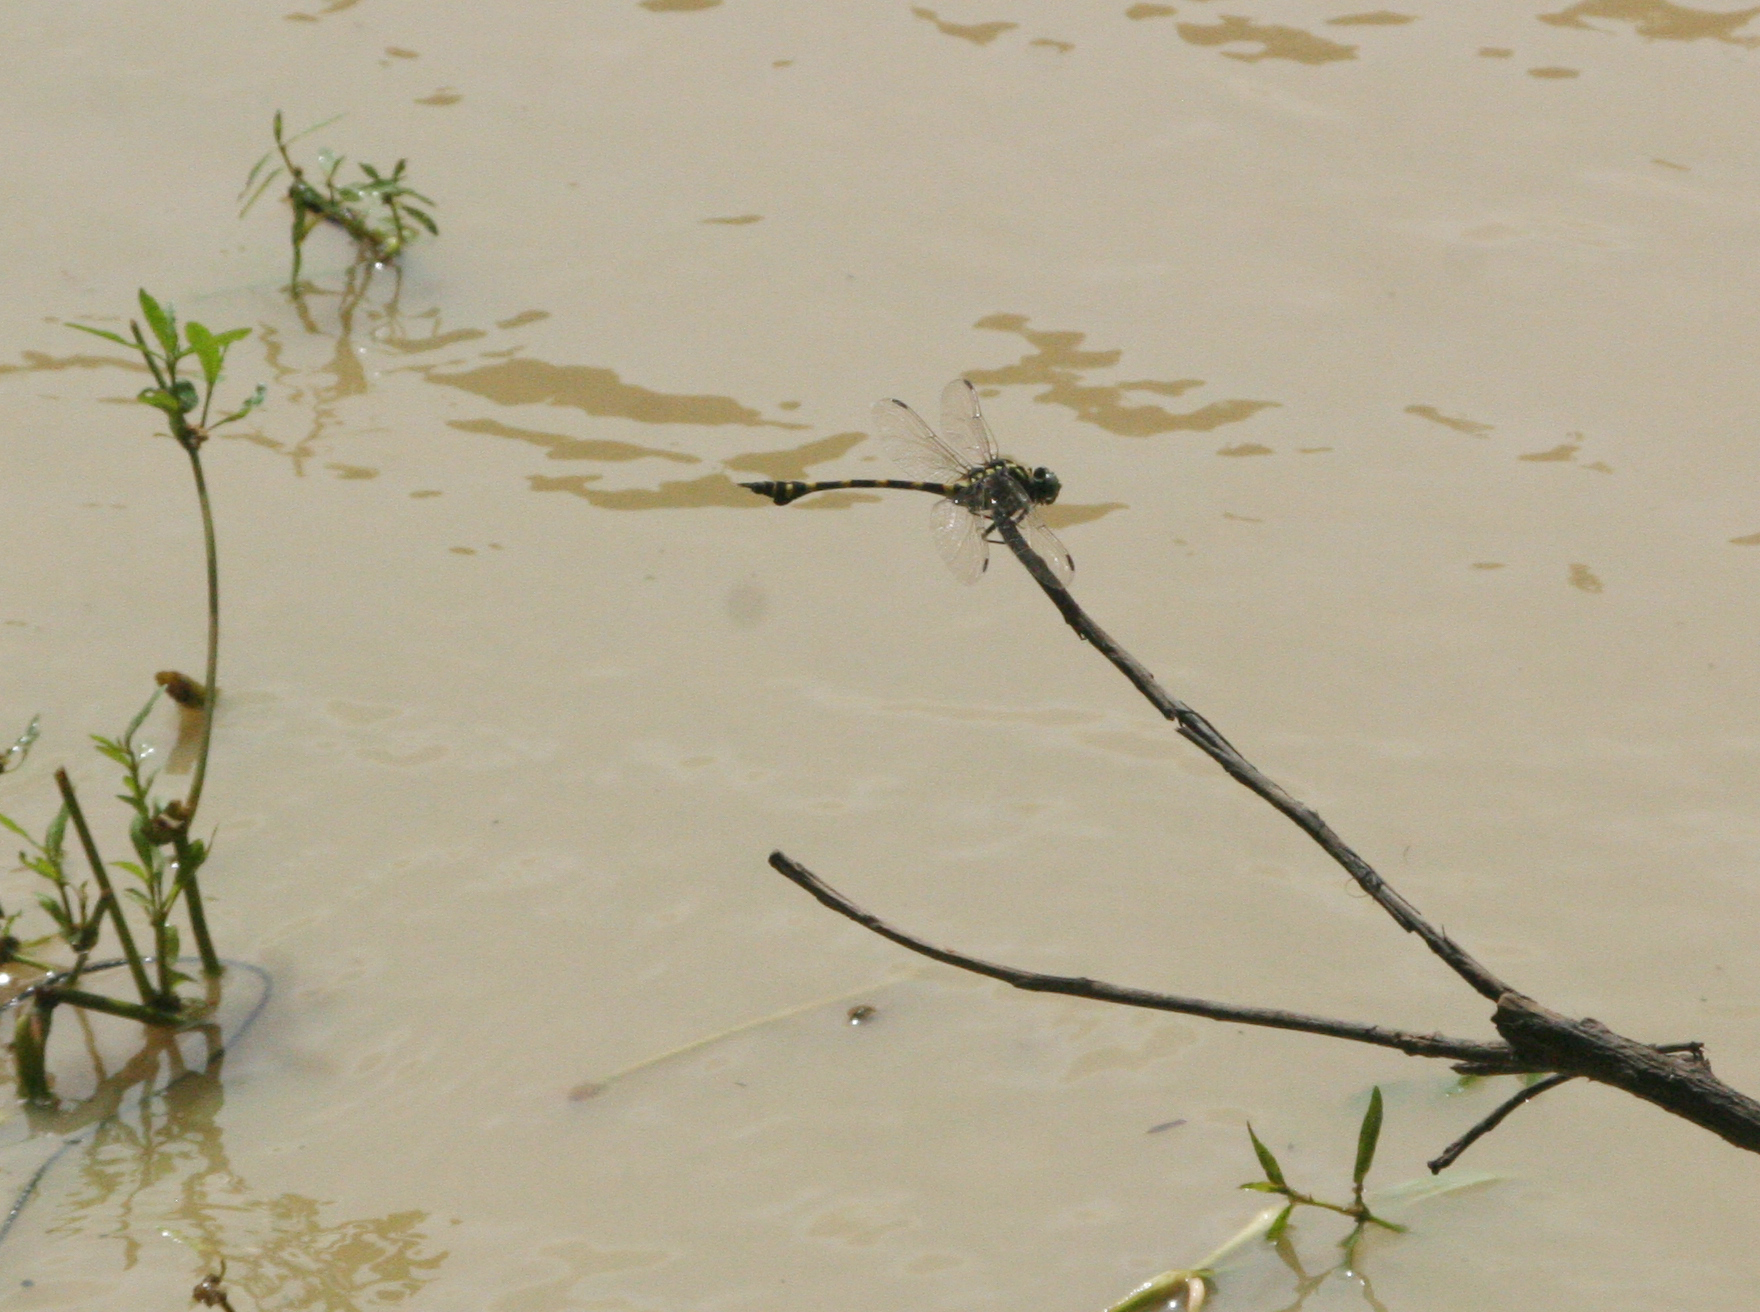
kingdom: Animalia
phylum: Arthropoda
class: Insecta
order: Odonata
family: Gomphidae
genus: Ictinogomphus
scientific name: Ictinogomphus decoratus
